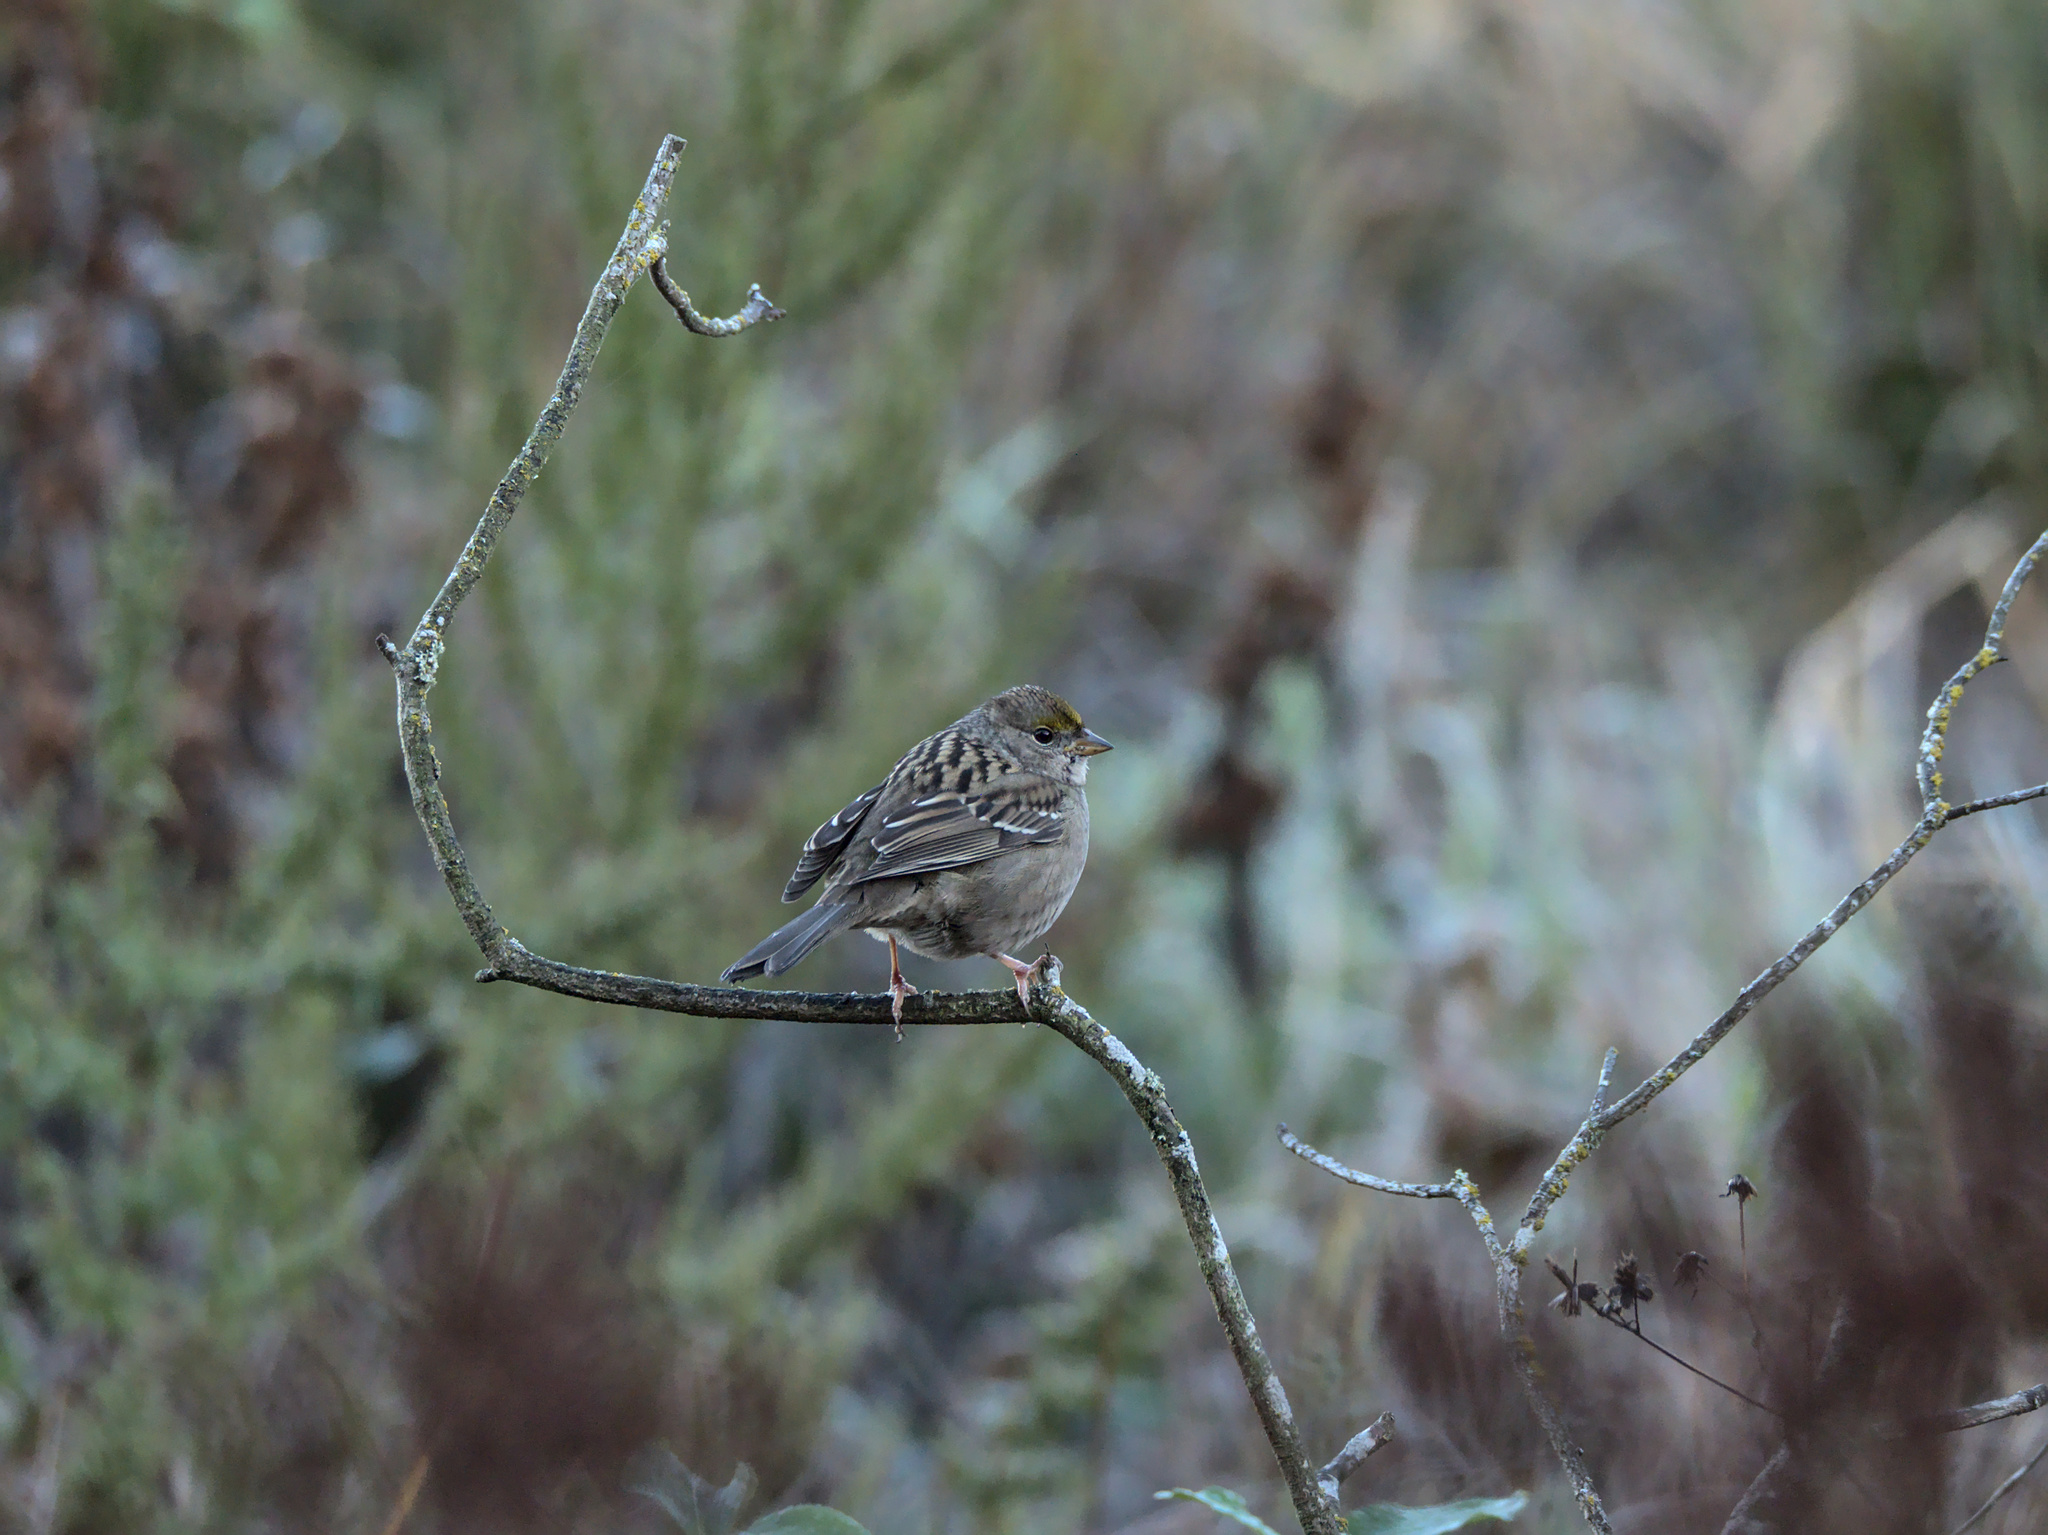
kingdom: Animalia
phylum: Chordata
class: Aves
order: Passeriformes
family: Passerellidae
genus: Zonotrichia
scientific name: Zonotrichia atricapilla
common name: Golden-crowned sparrow
